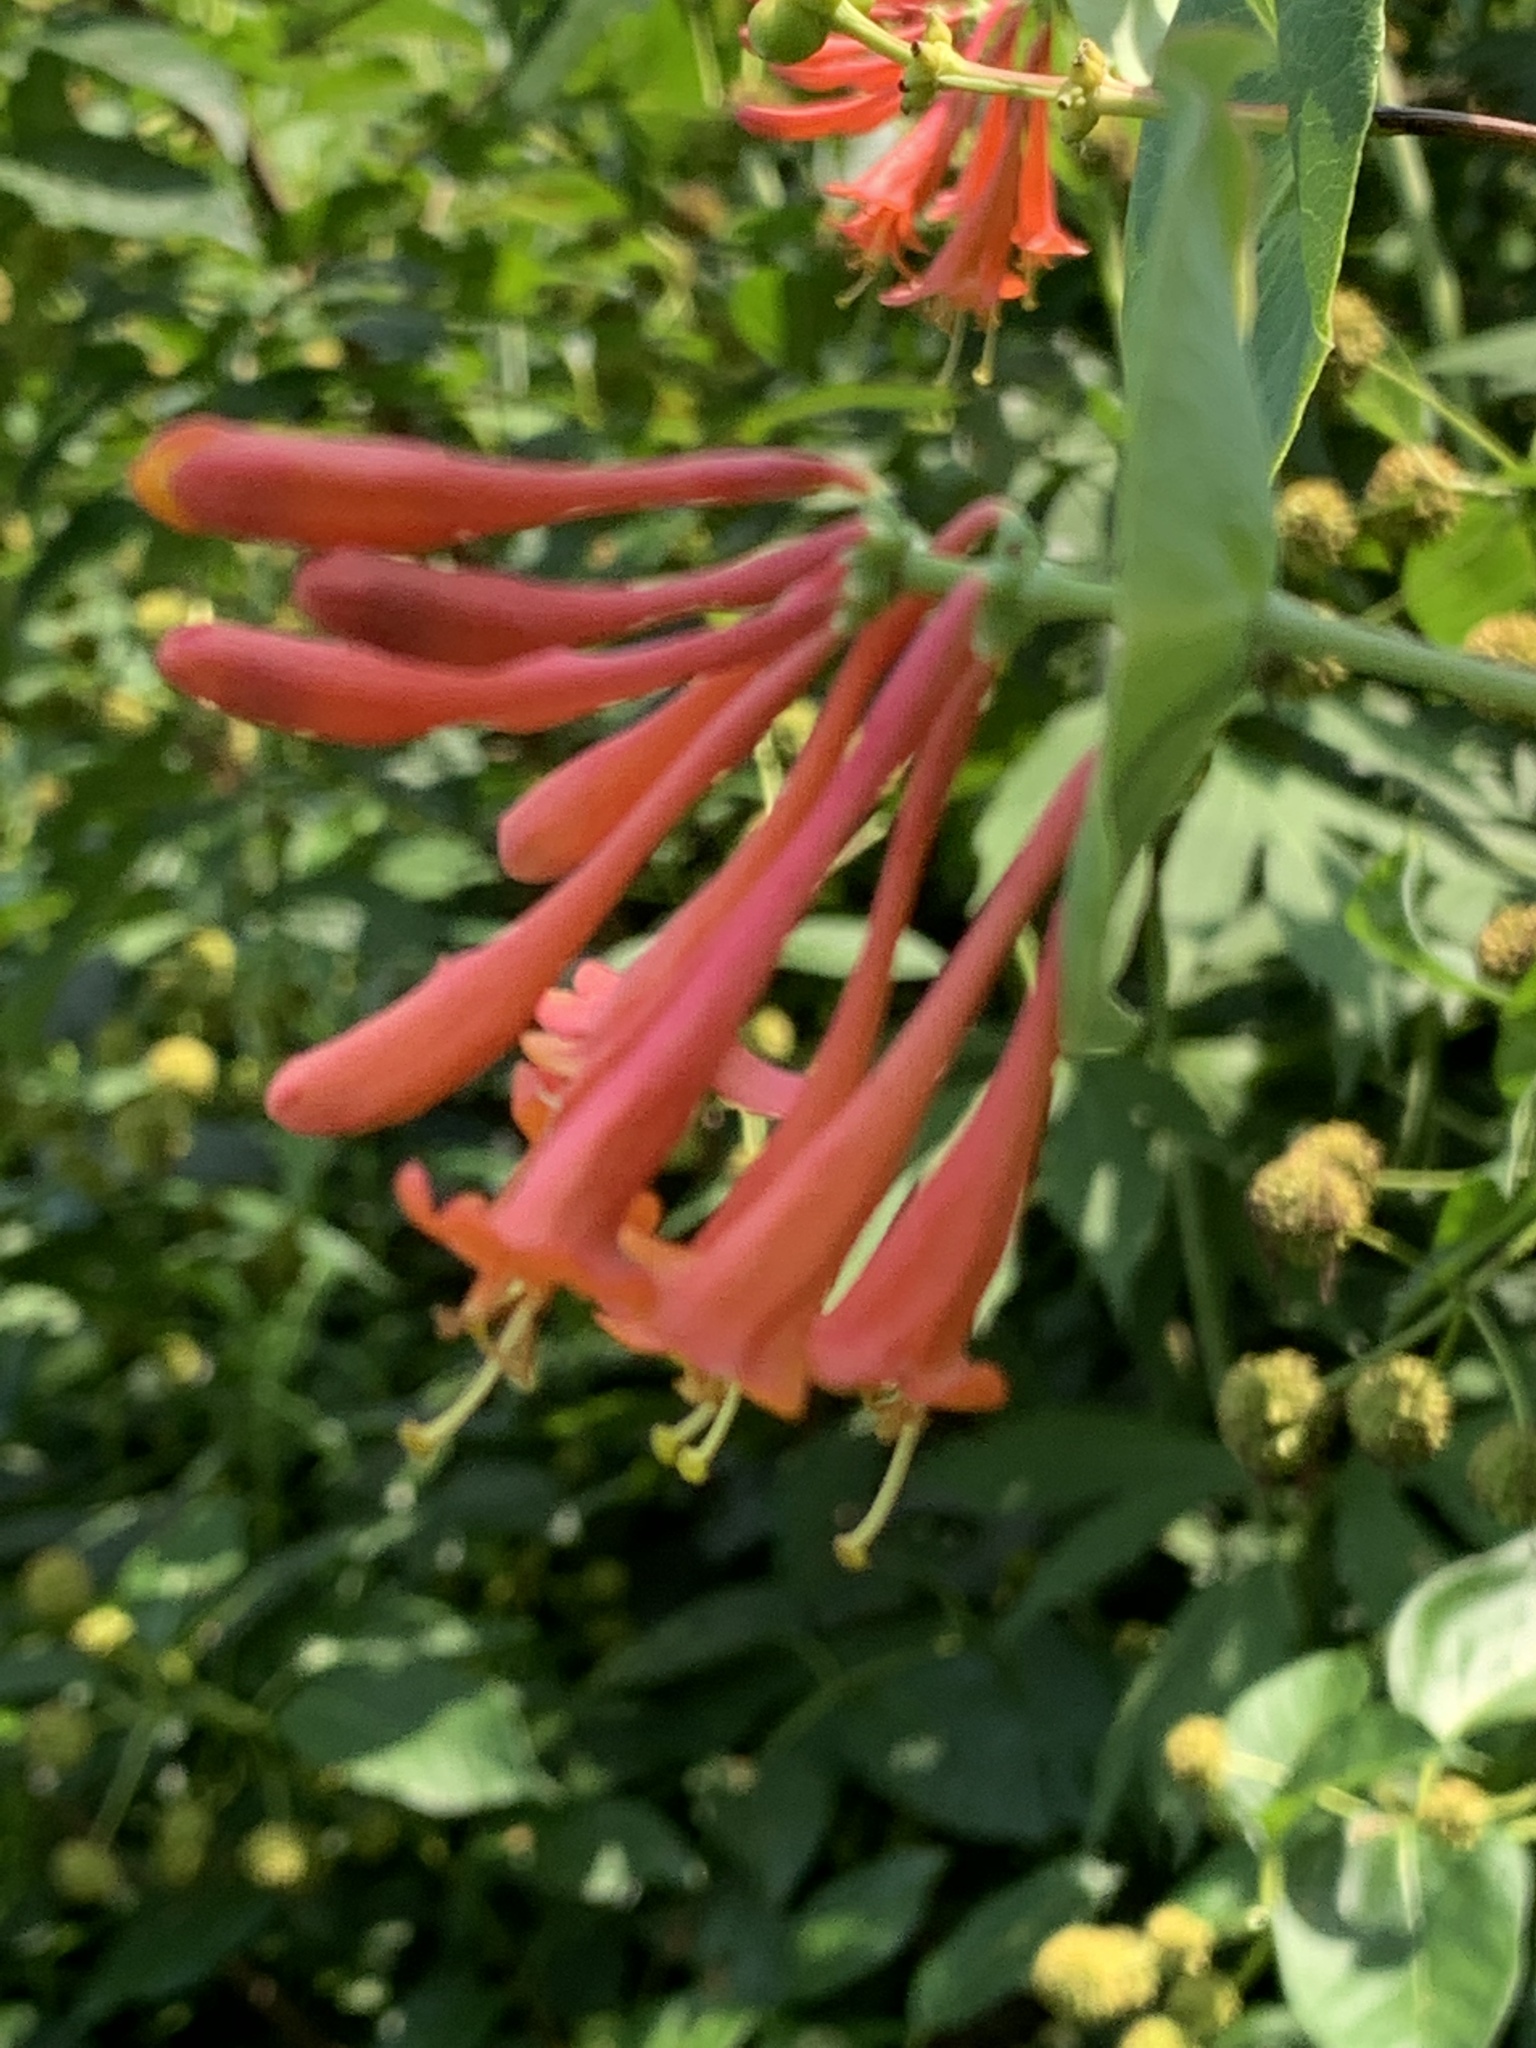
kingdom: Plantae
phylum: Tracheophyta
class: Magnoliopsida
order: Dipsacales
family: Caprifoliaceae
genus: Lonicera
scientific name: Lonicera sempervirens
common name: Coral honeysuckle
